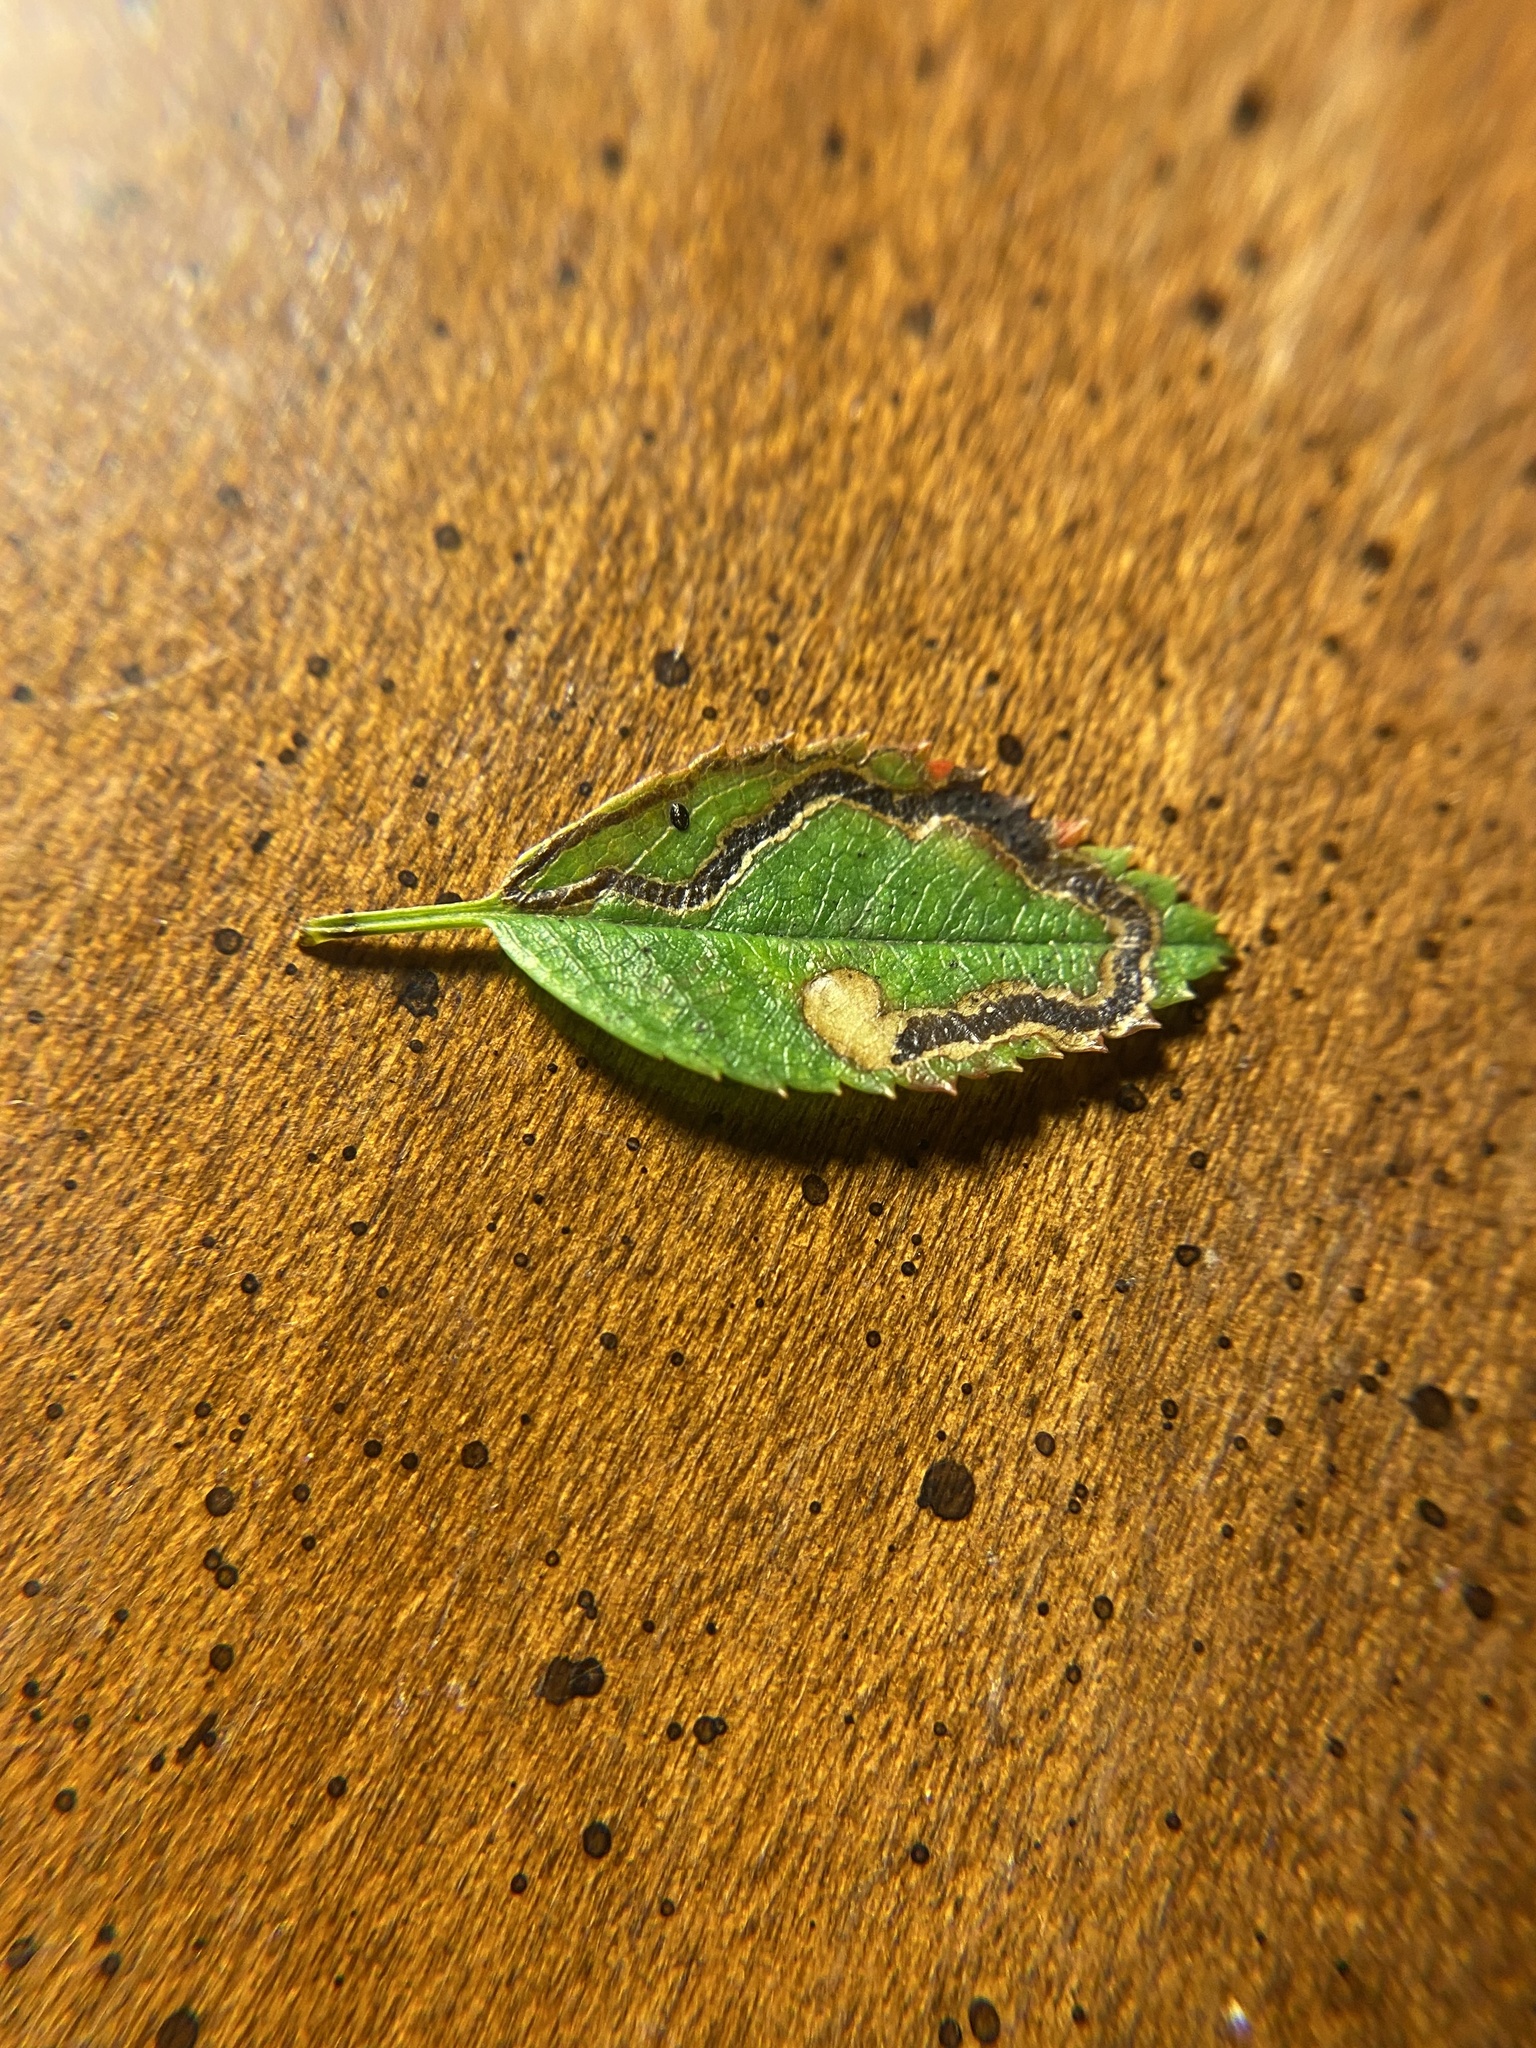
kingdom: Animalia
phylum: Arthropoda
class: Insecta
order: Lepidoptera
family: Nepticulidae
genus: Stigmella
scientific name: Stigmella rosaefoliella
